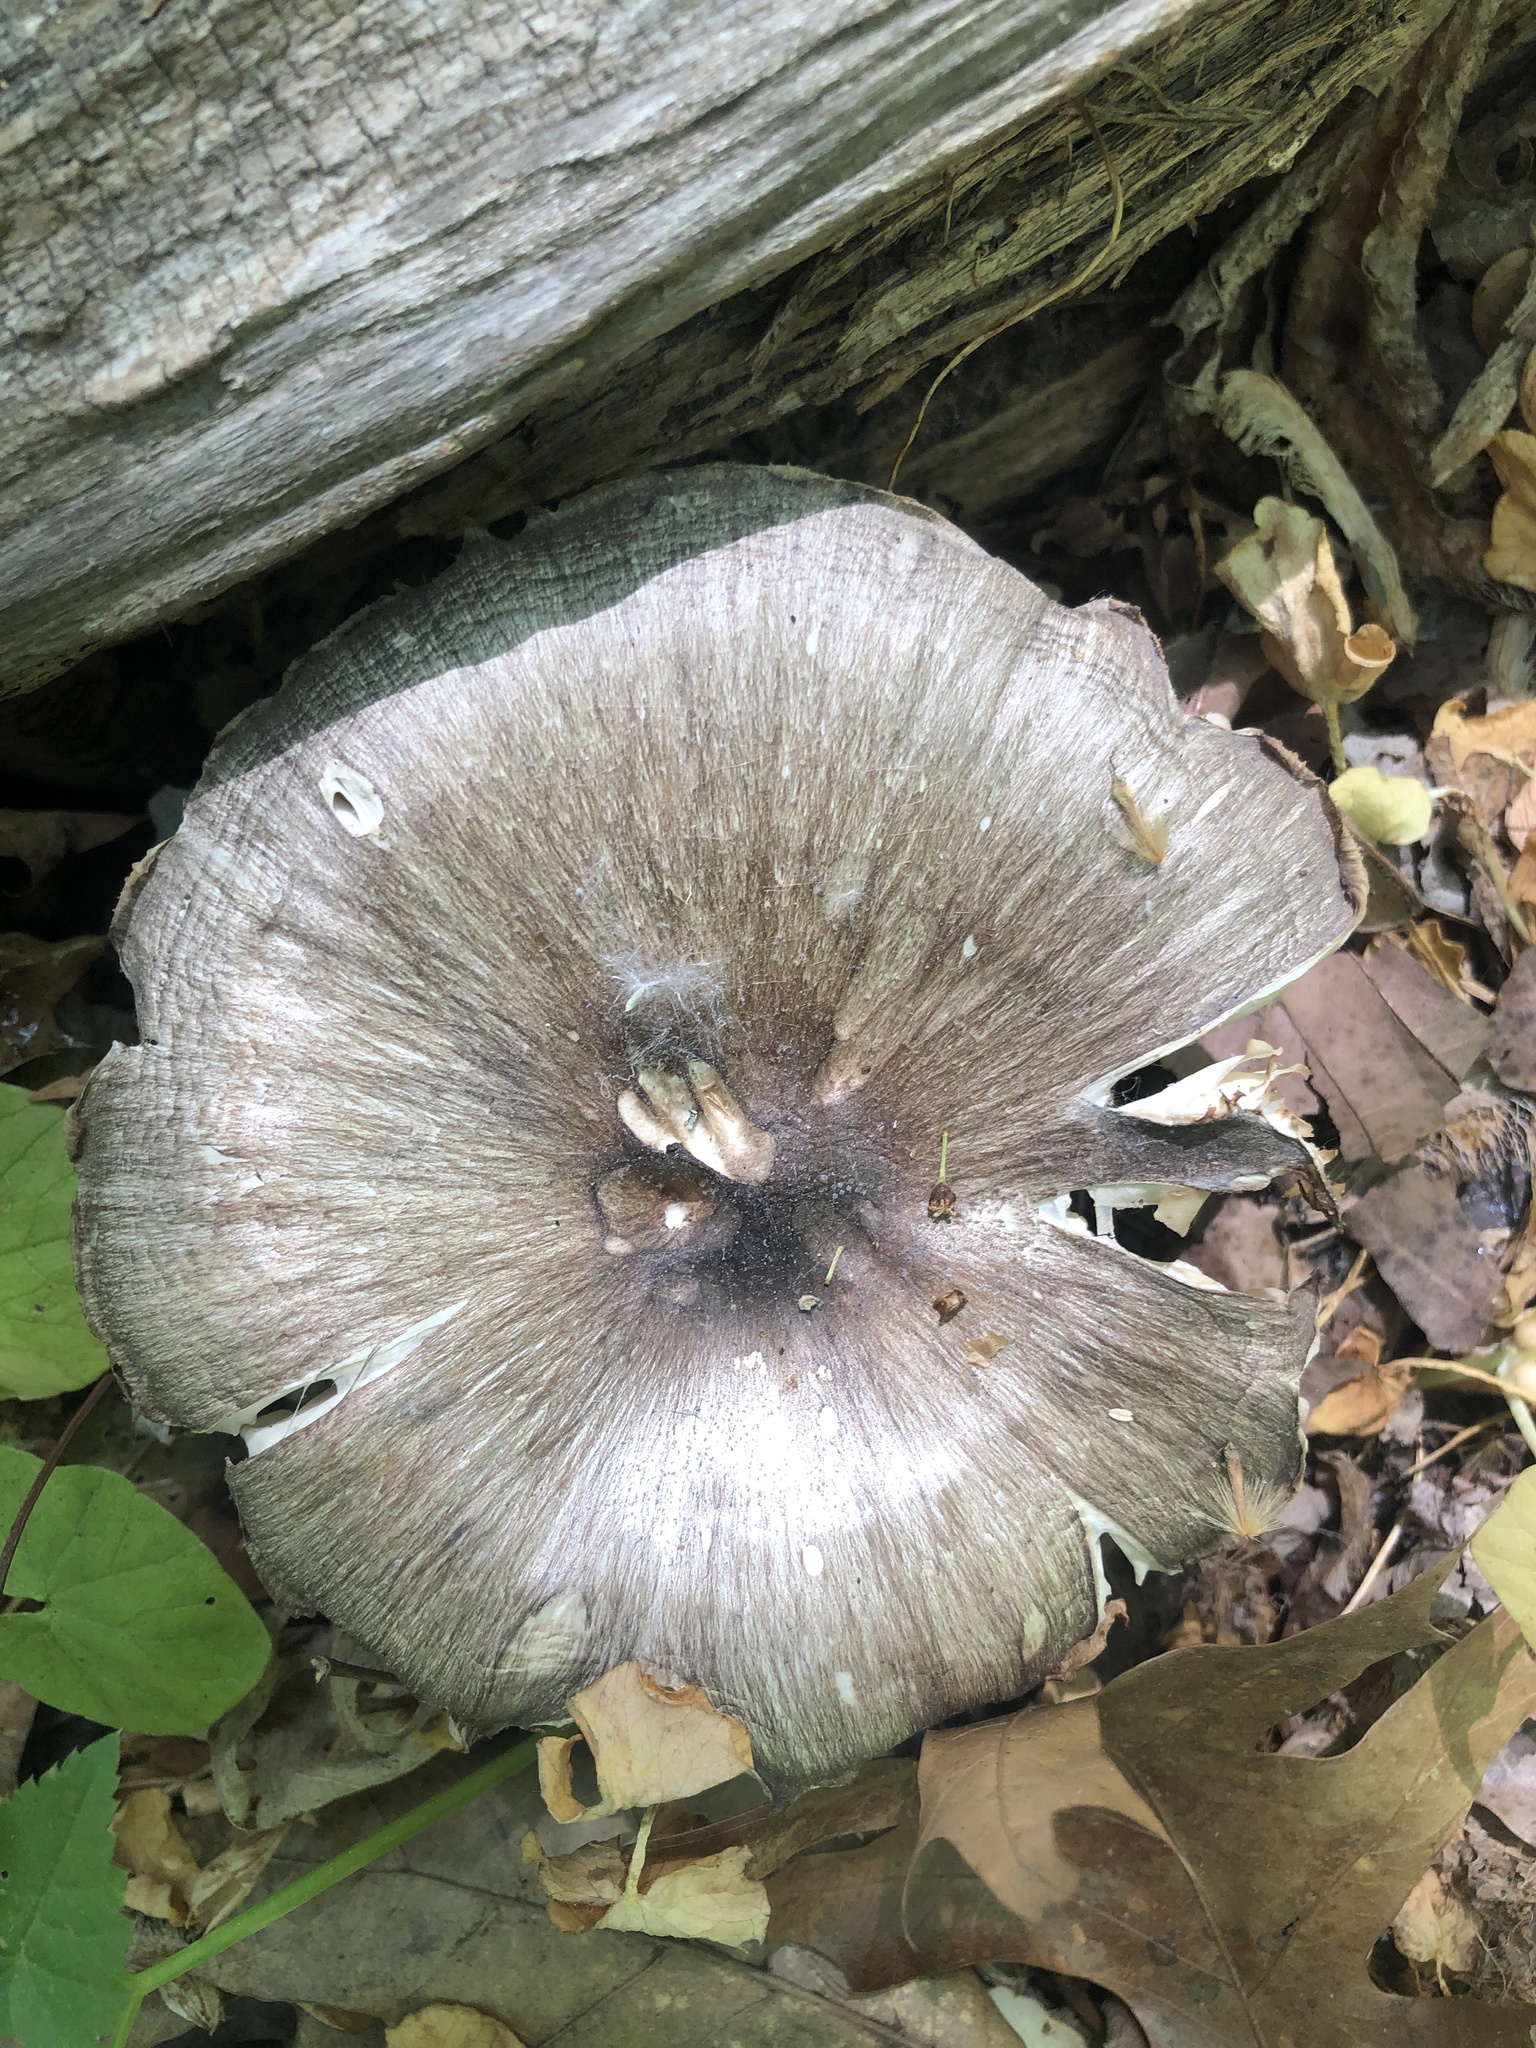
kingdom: Fungi
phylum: Basidiomycota
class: Agaricomycetes
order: Agaricales
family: Pluteaceae
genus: Pluteus
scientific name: Pluteus cervinus
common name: Deer shield
